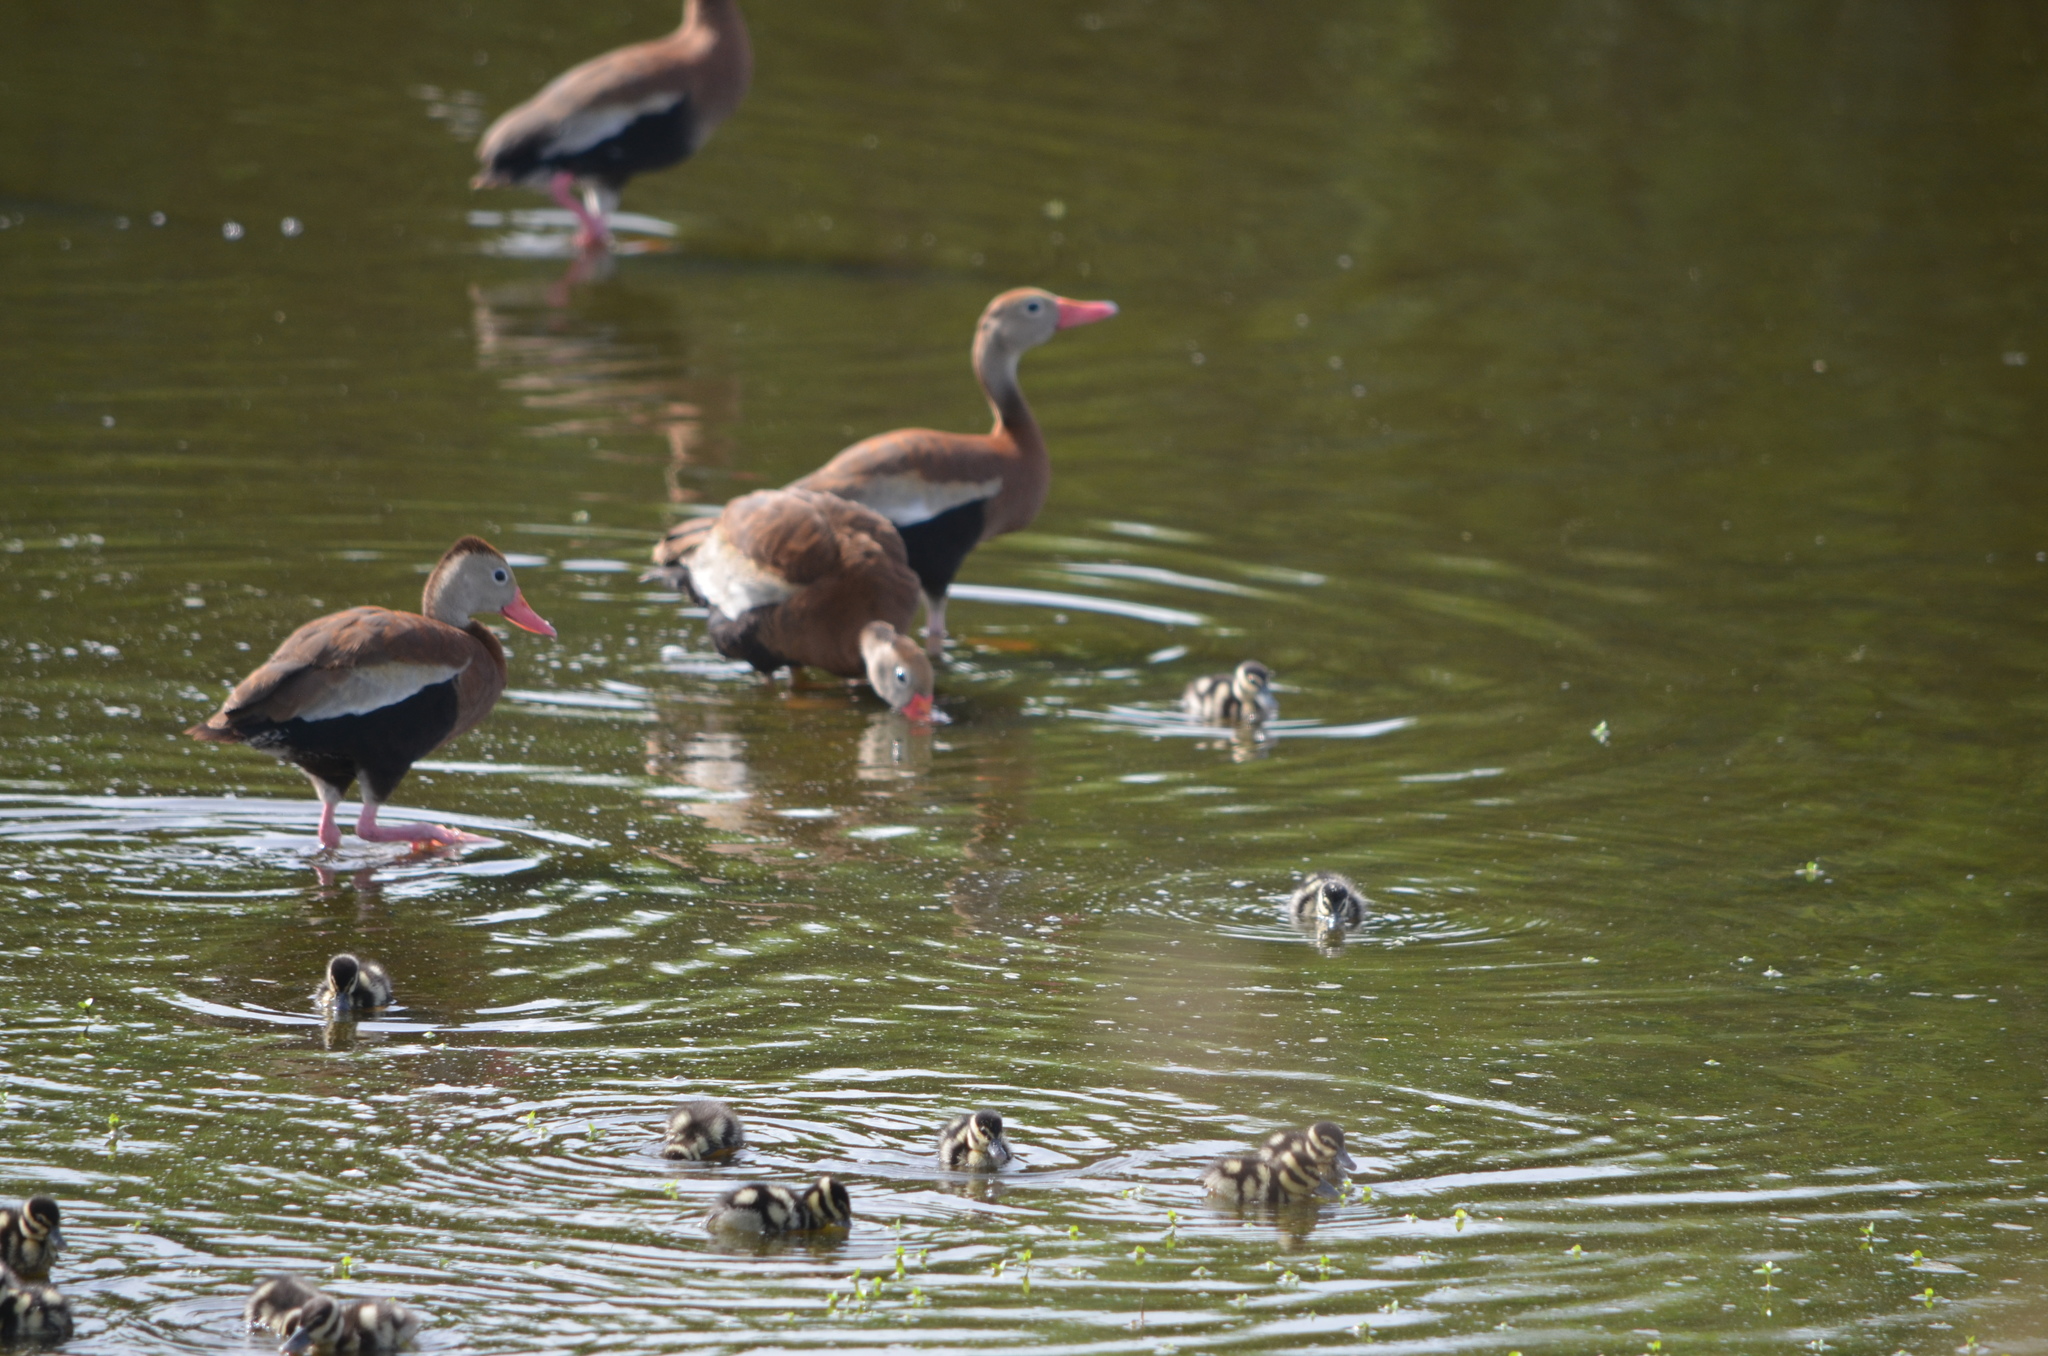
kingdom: Animalia
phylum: Chordata
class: Aves
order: Anseriformes
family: Anatidae
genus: Dendrocygna
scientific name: Dendrocygna autumnalis
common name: Black-bellied whistling duck
